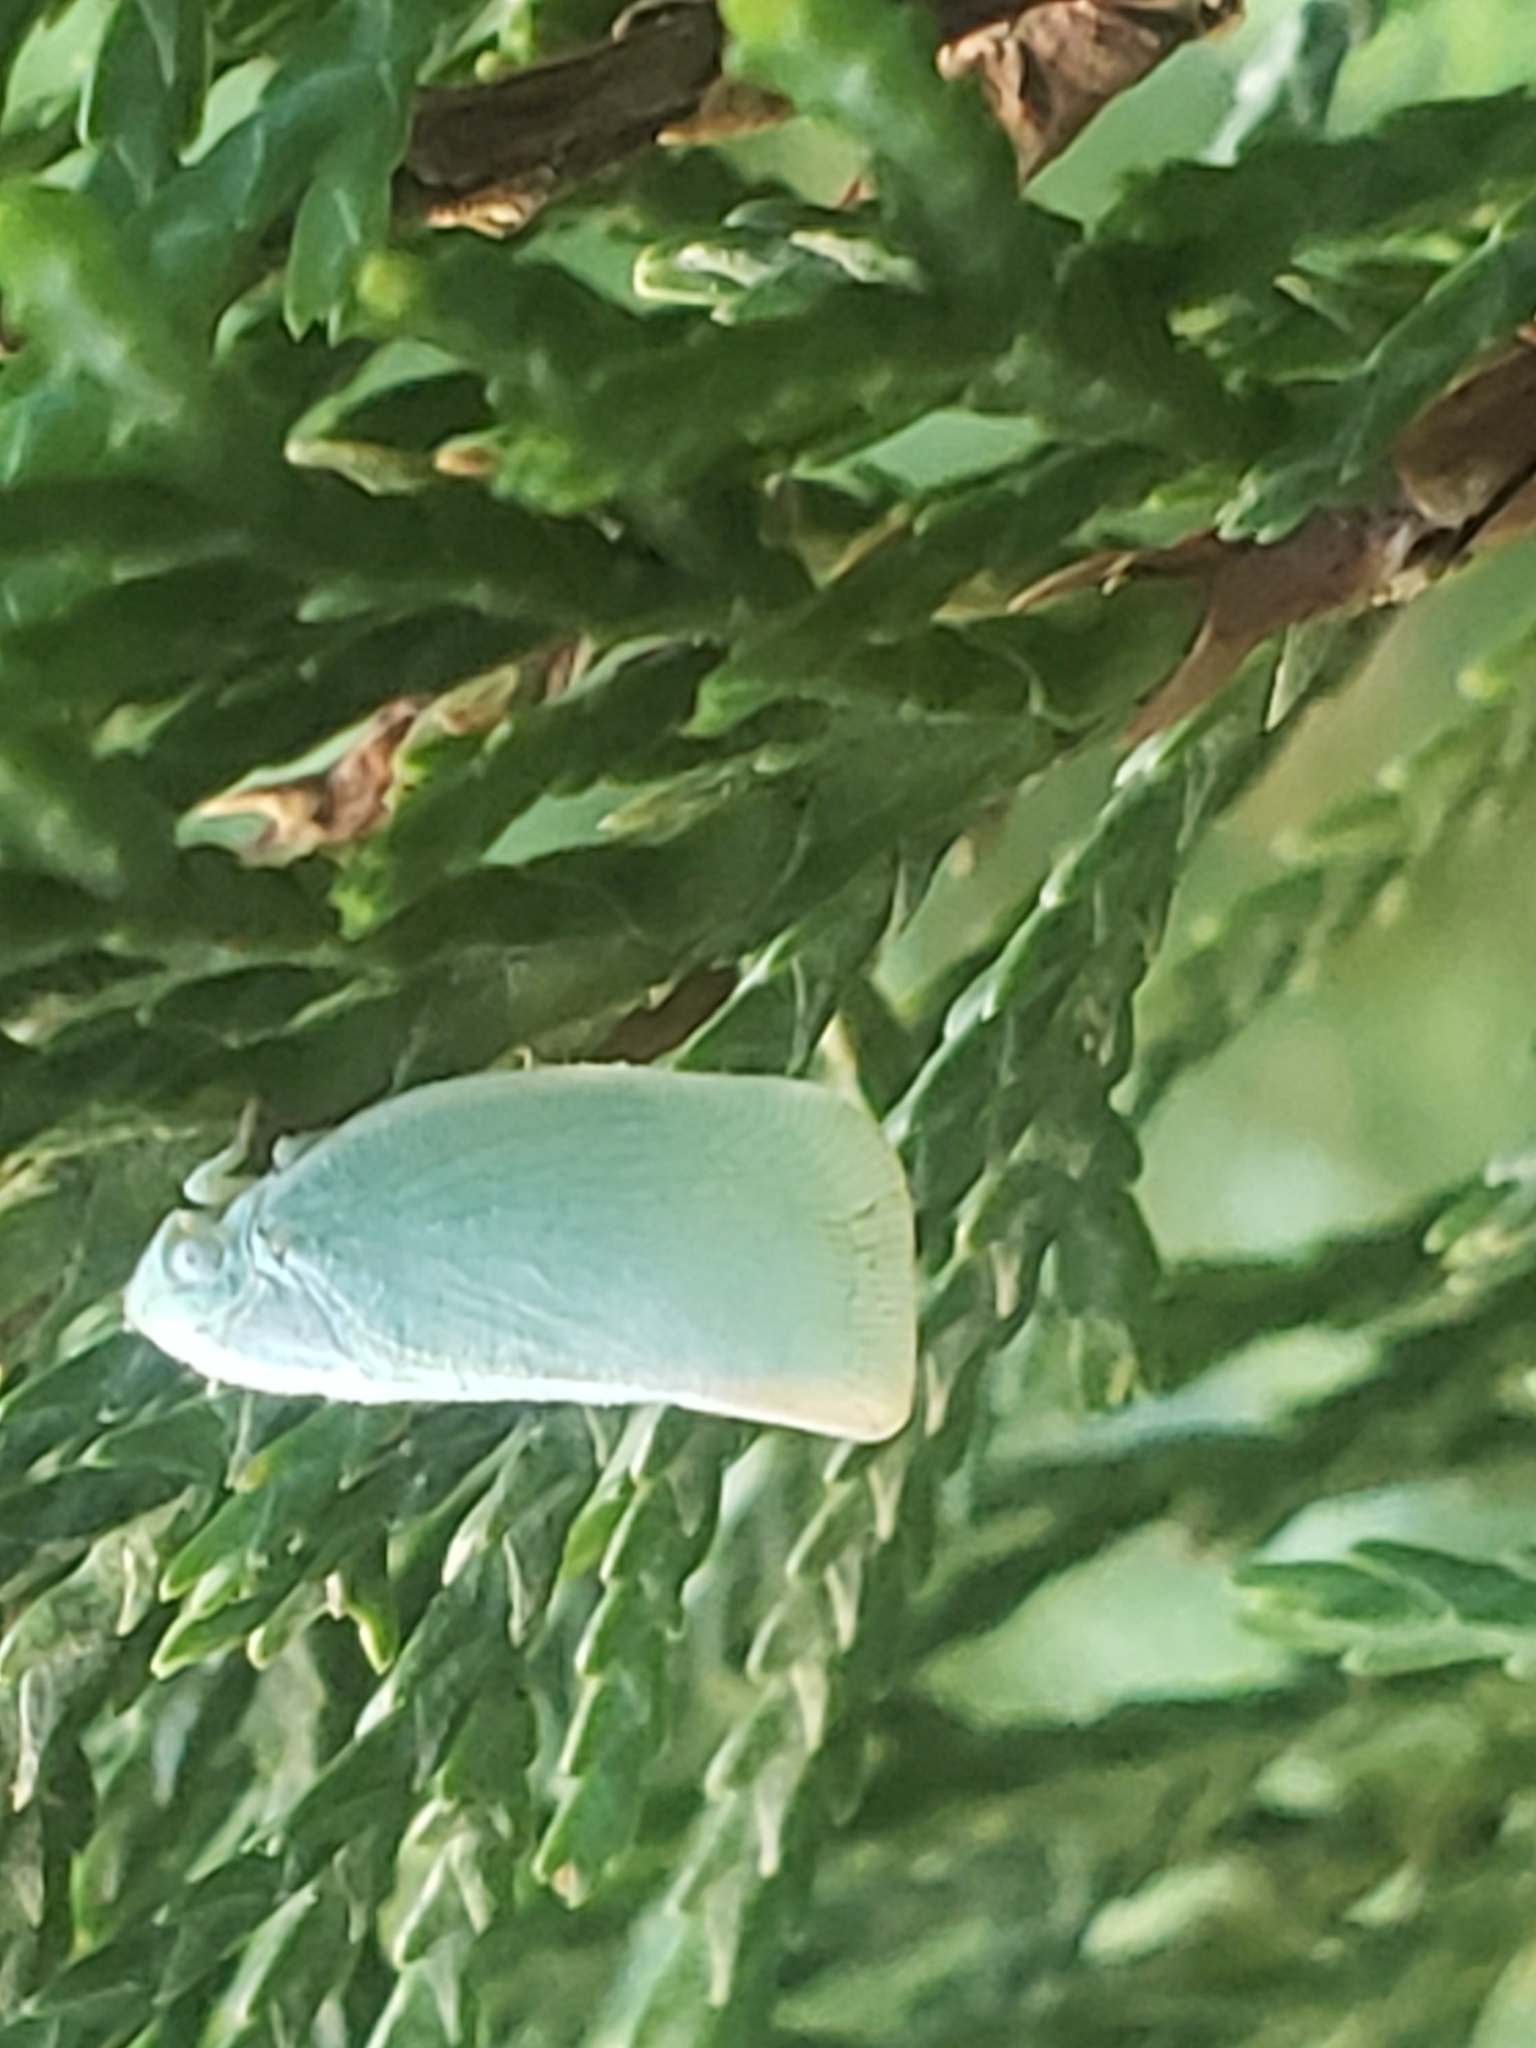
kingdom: Animalia
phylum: Arthropoda
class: Insecta
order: Hemiptera
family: Flatidae
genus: Flatormenis
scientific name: Flatormenis proxima
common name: Northern flatid planthopper
